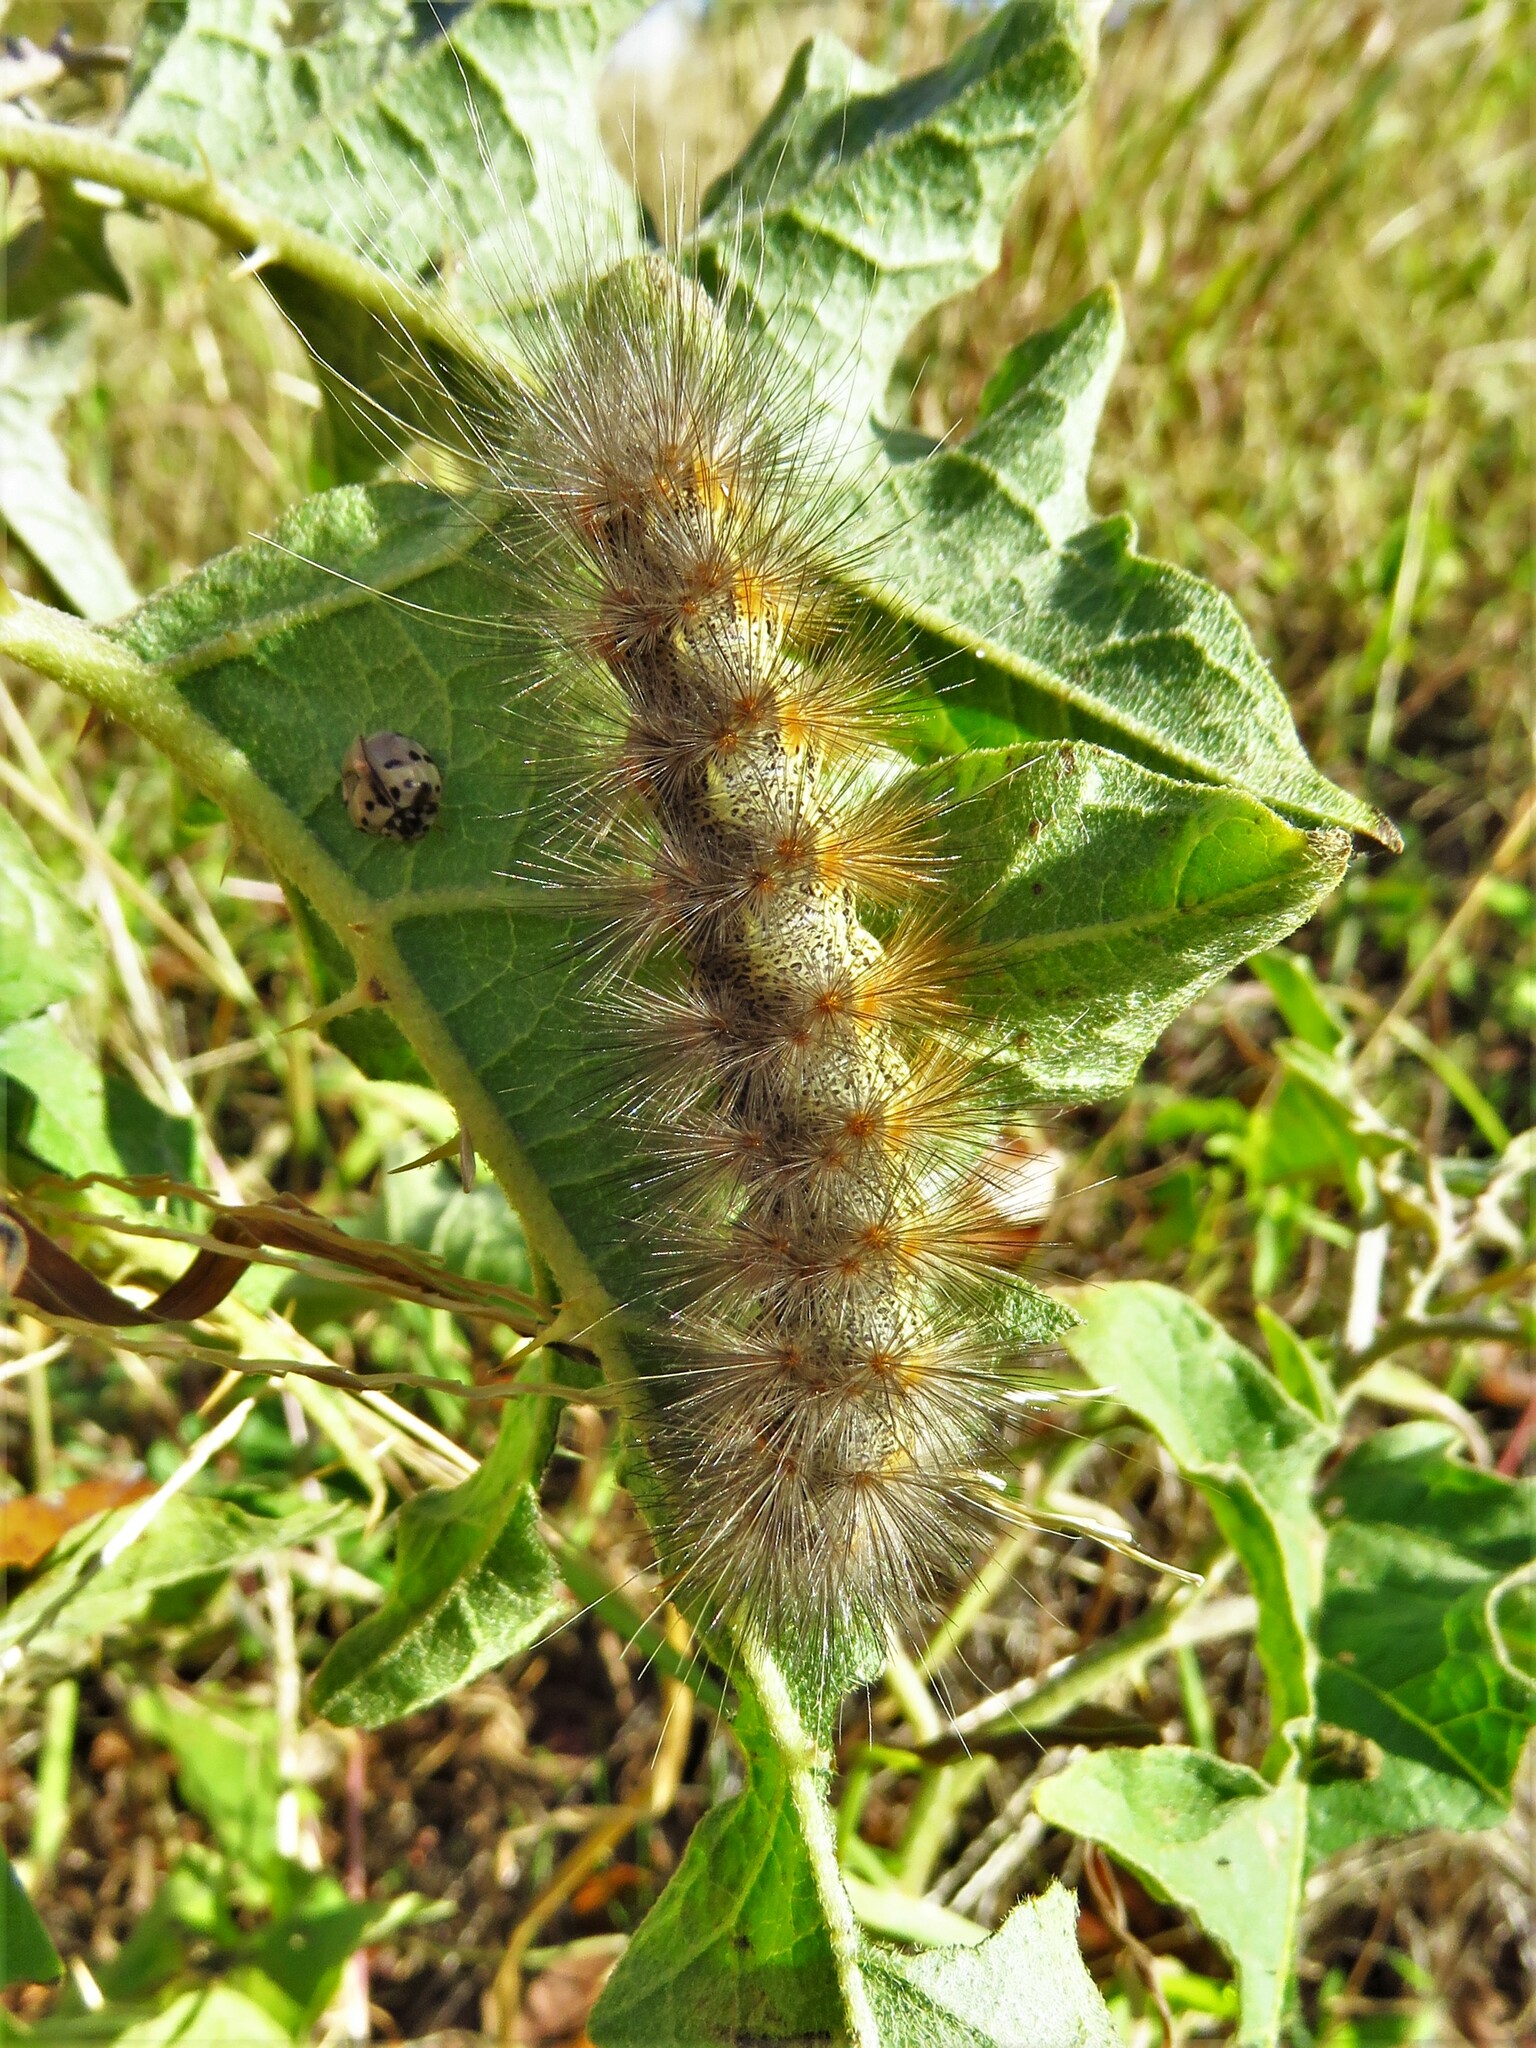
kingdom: Animalia
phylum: Arthropoda
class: Insecta
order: Lepidoptera
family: Erebidae
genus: Estigmene
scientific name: Estigmene acrea
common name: Salt marsh moth
